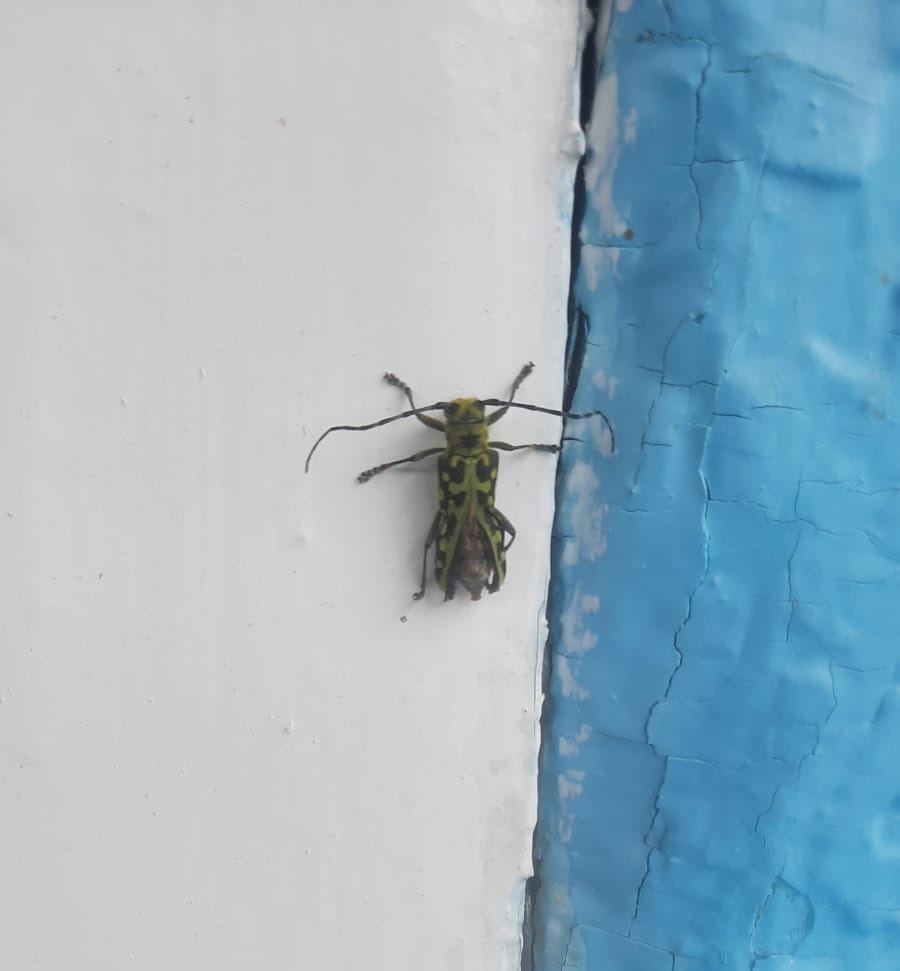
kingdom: Animalia
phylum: Arthropoda
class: Insecta
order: Coleoptera
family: Cerambycidae
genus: Saperda
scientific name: Saperda scalaris
